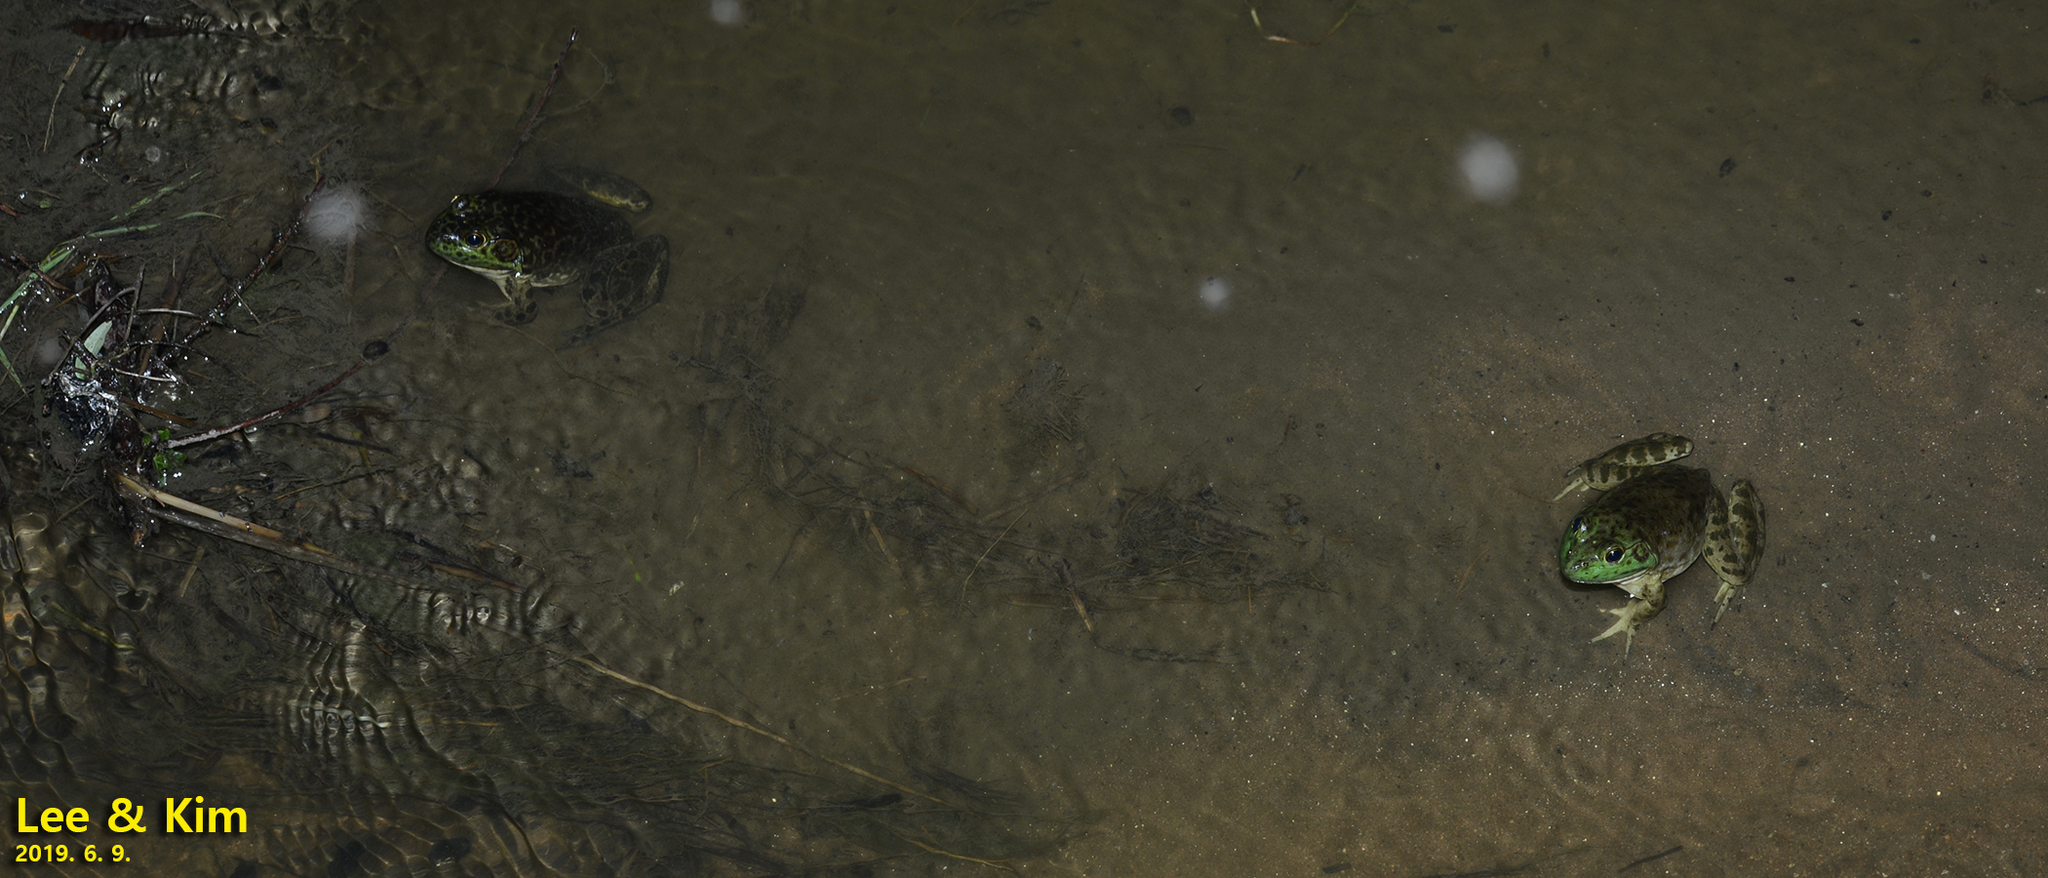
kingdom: Animalia
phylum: Chordata
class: Amphibia
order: Anura
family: Ranidae
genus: Lithobates
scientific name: Lithobates catesbeianus
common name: American bullfrog
